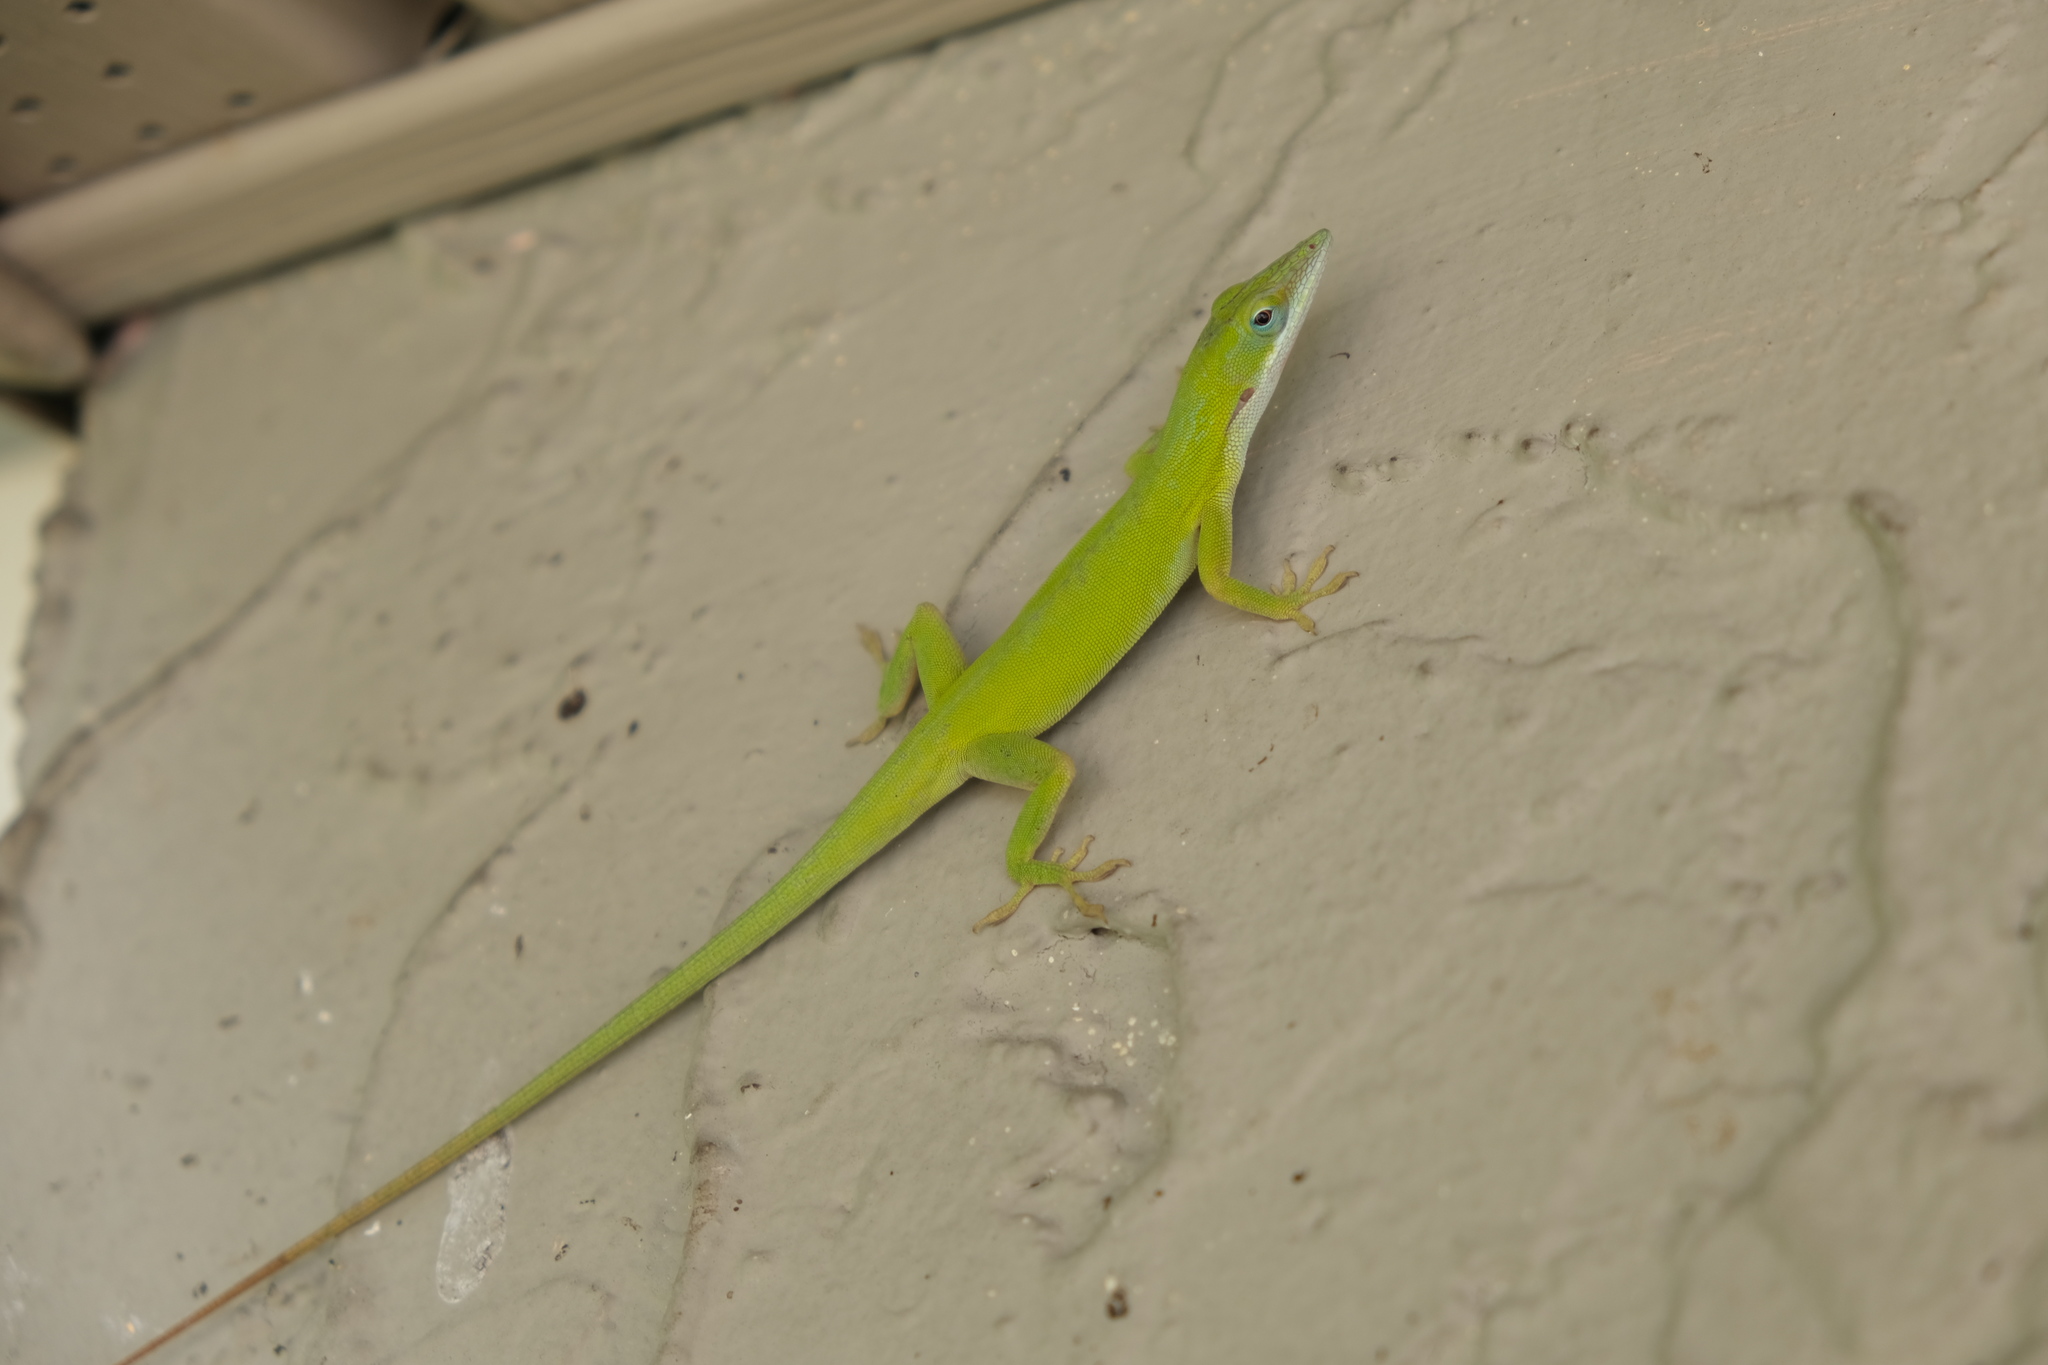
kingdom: Animalia
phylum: Chordata
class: Squamata
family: Dactyloidae
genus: Anolis
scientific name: Anolis allisoni
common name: Allison's anole
